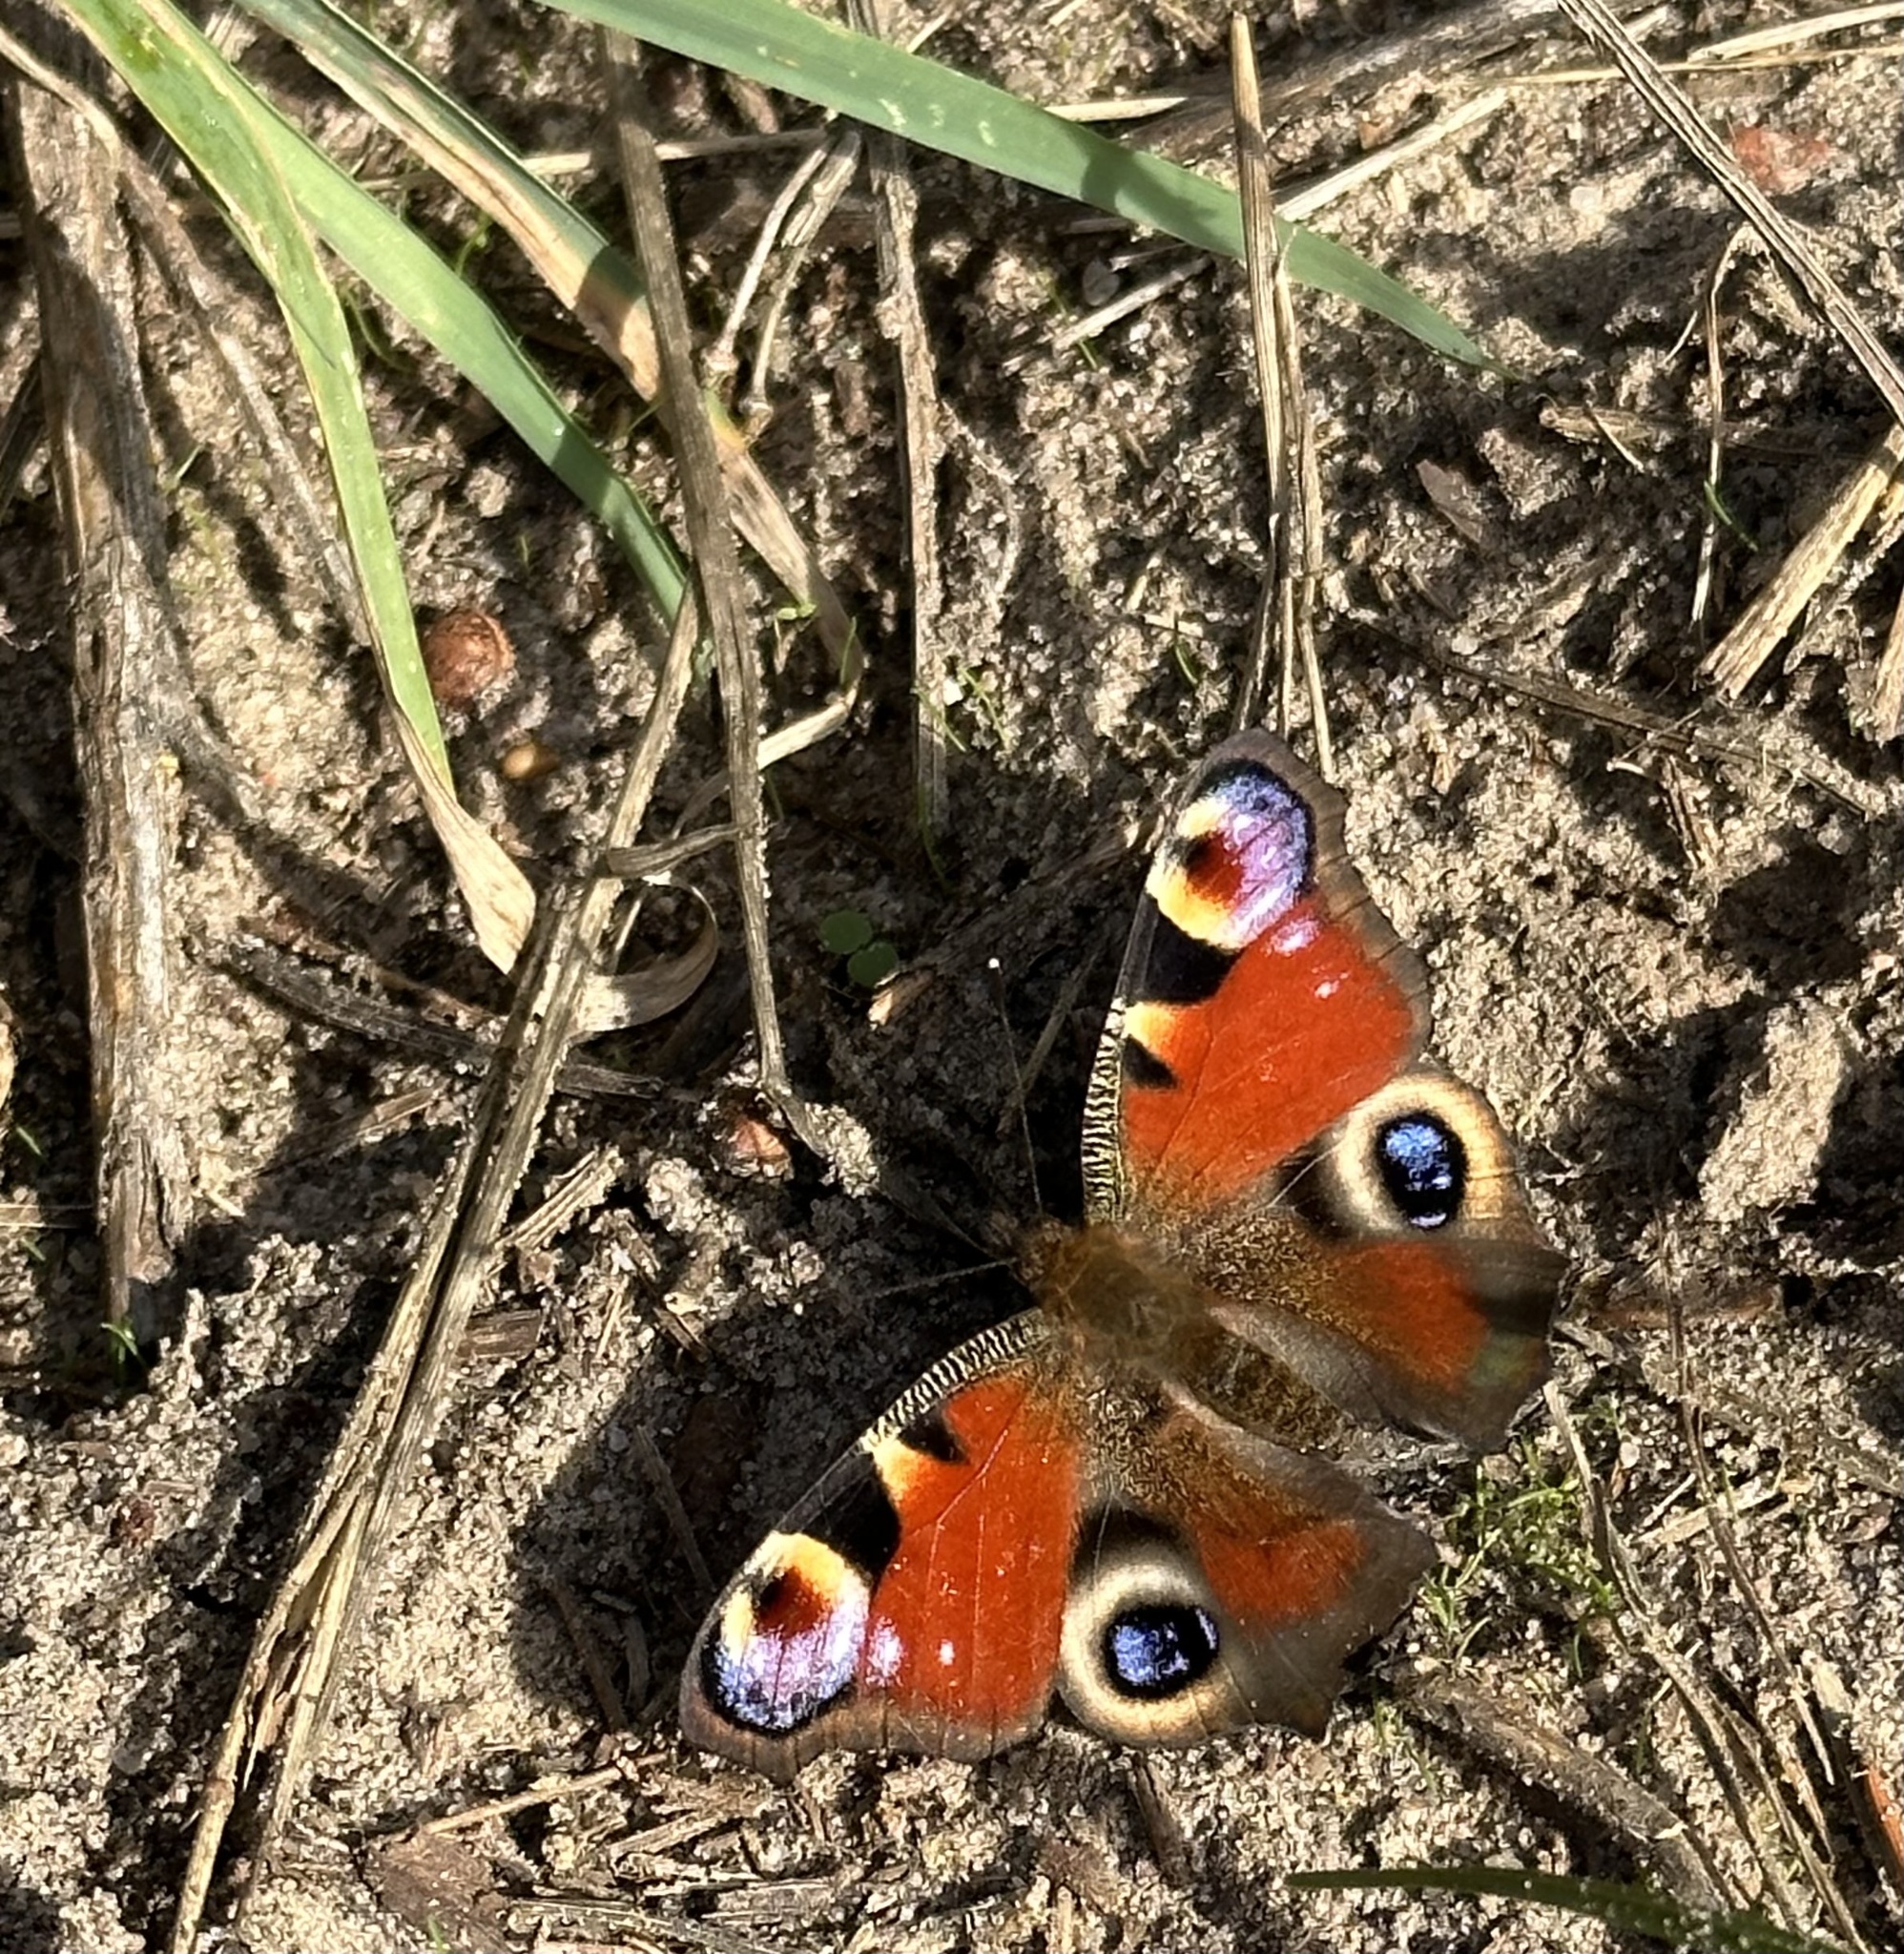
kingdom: Animalia
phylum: Arthropoda
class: Insecta
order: Lepidoptera
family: Nymphalidae
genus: Aglais
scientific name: Aglais io
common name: Peacock
